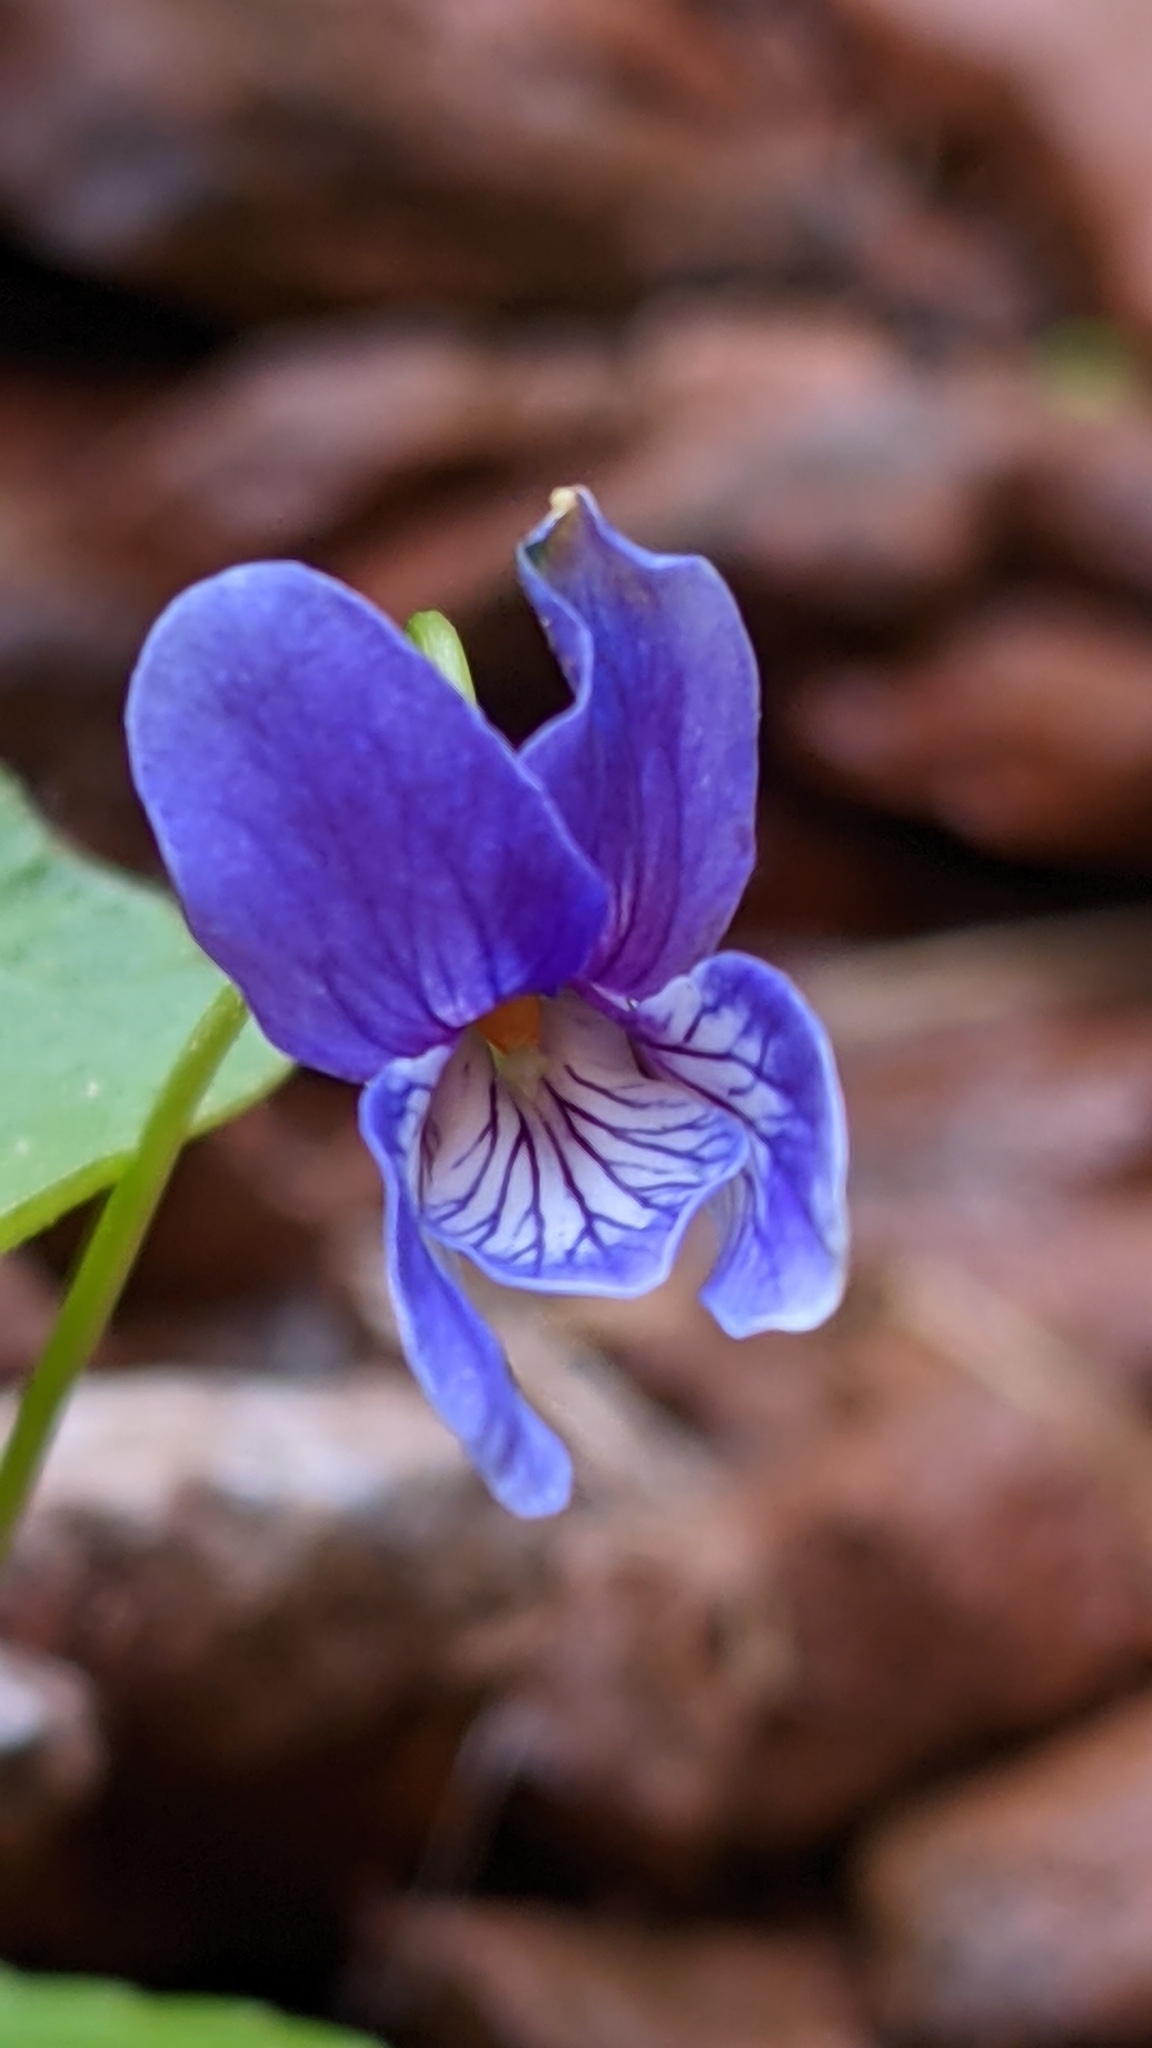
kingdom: Plantae
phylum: Tracheophyta
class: Magnoliopsida
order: Malpighiales
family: Violaceae
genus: Viola
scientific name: Viola clauseniana
